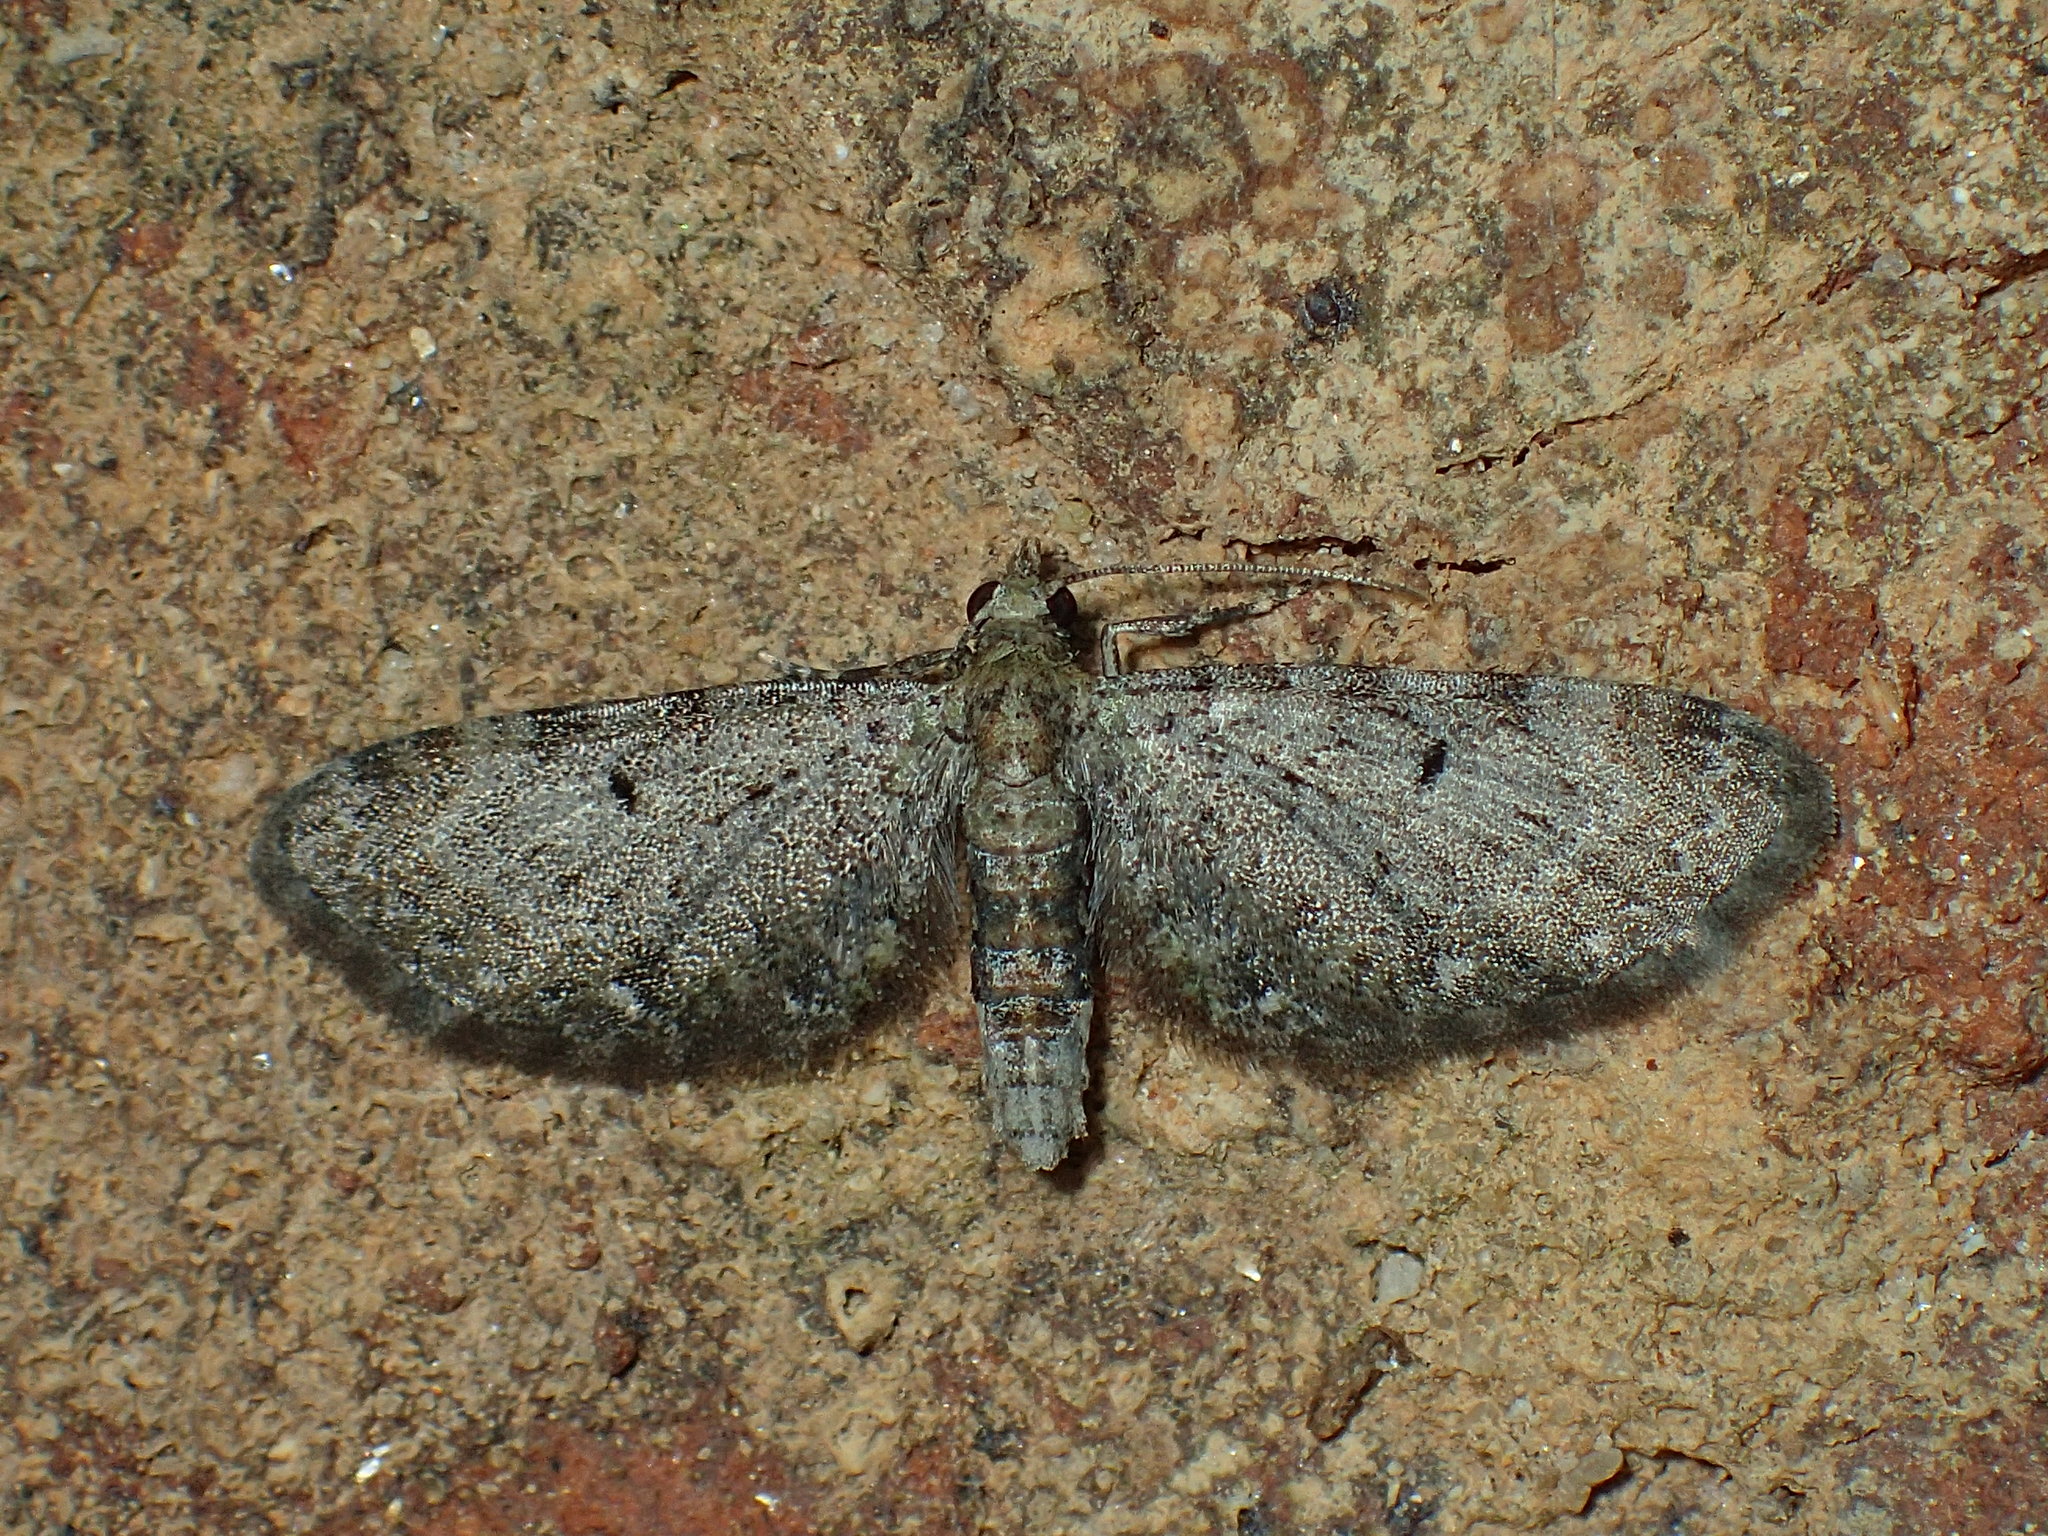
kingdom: Animalia
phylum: Arthropoda
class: Insecta
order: Lepidoptera
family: Geometridae
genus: Eupithecia
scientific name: Eupithecia miserulata
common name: Common eupithecia
